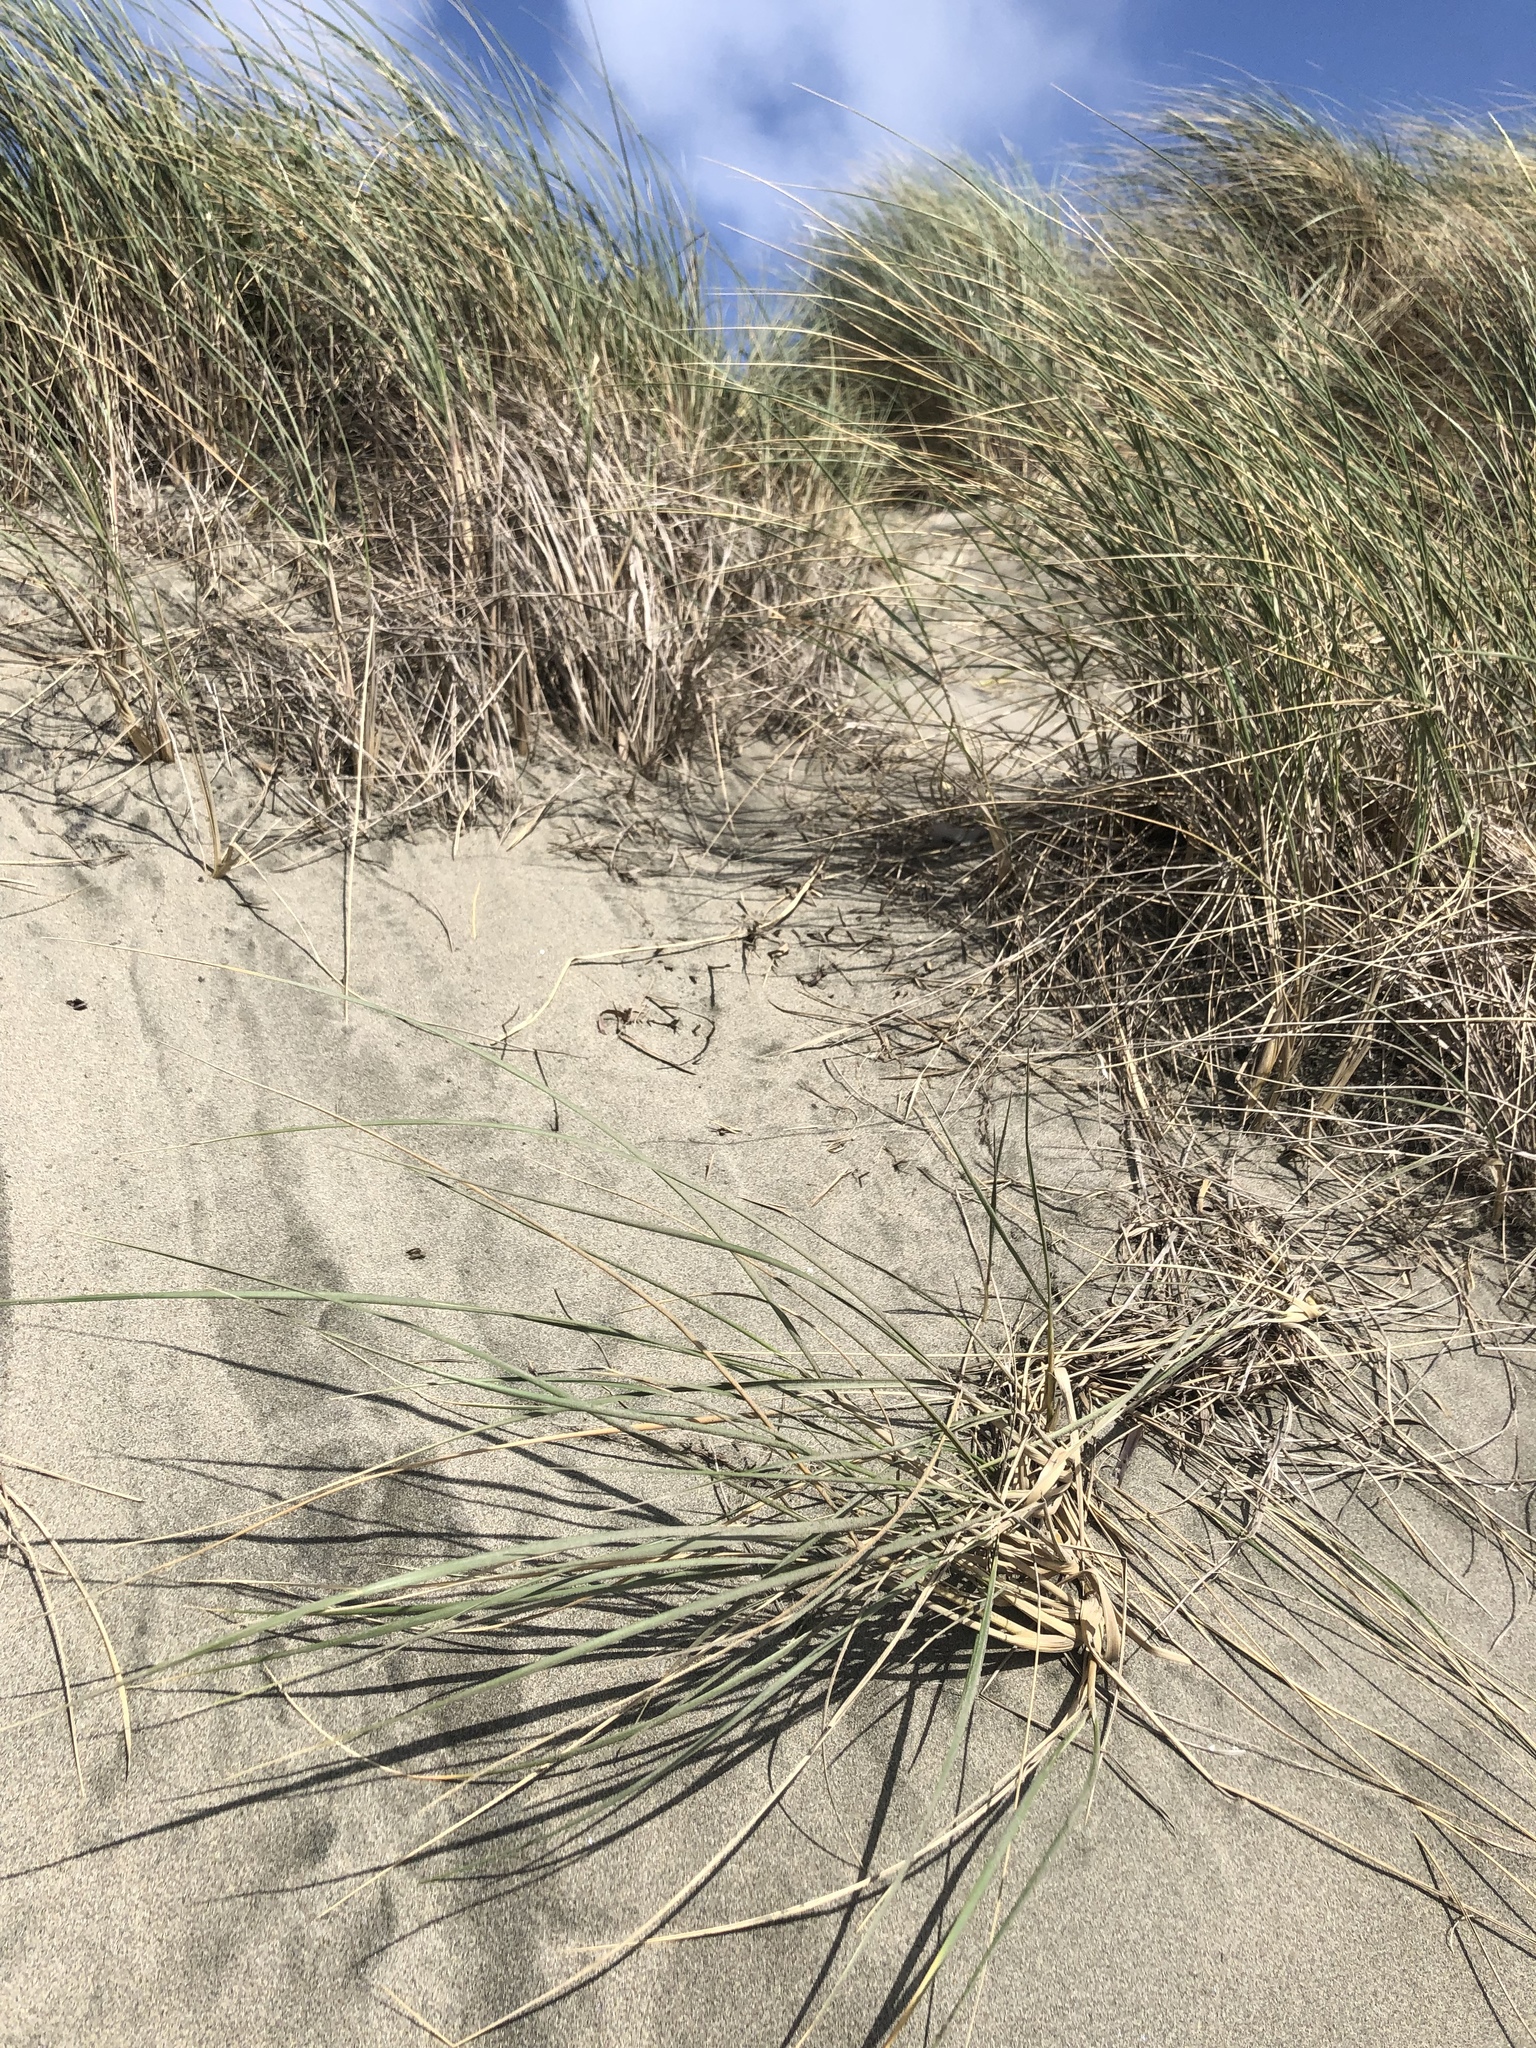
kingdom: Plantae
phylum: Tracheophyta
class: Liliopsida
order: Poales
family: Poaceae
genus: Calamagrostis
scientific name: Calamagrostis arenaria
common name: European beachgrass
